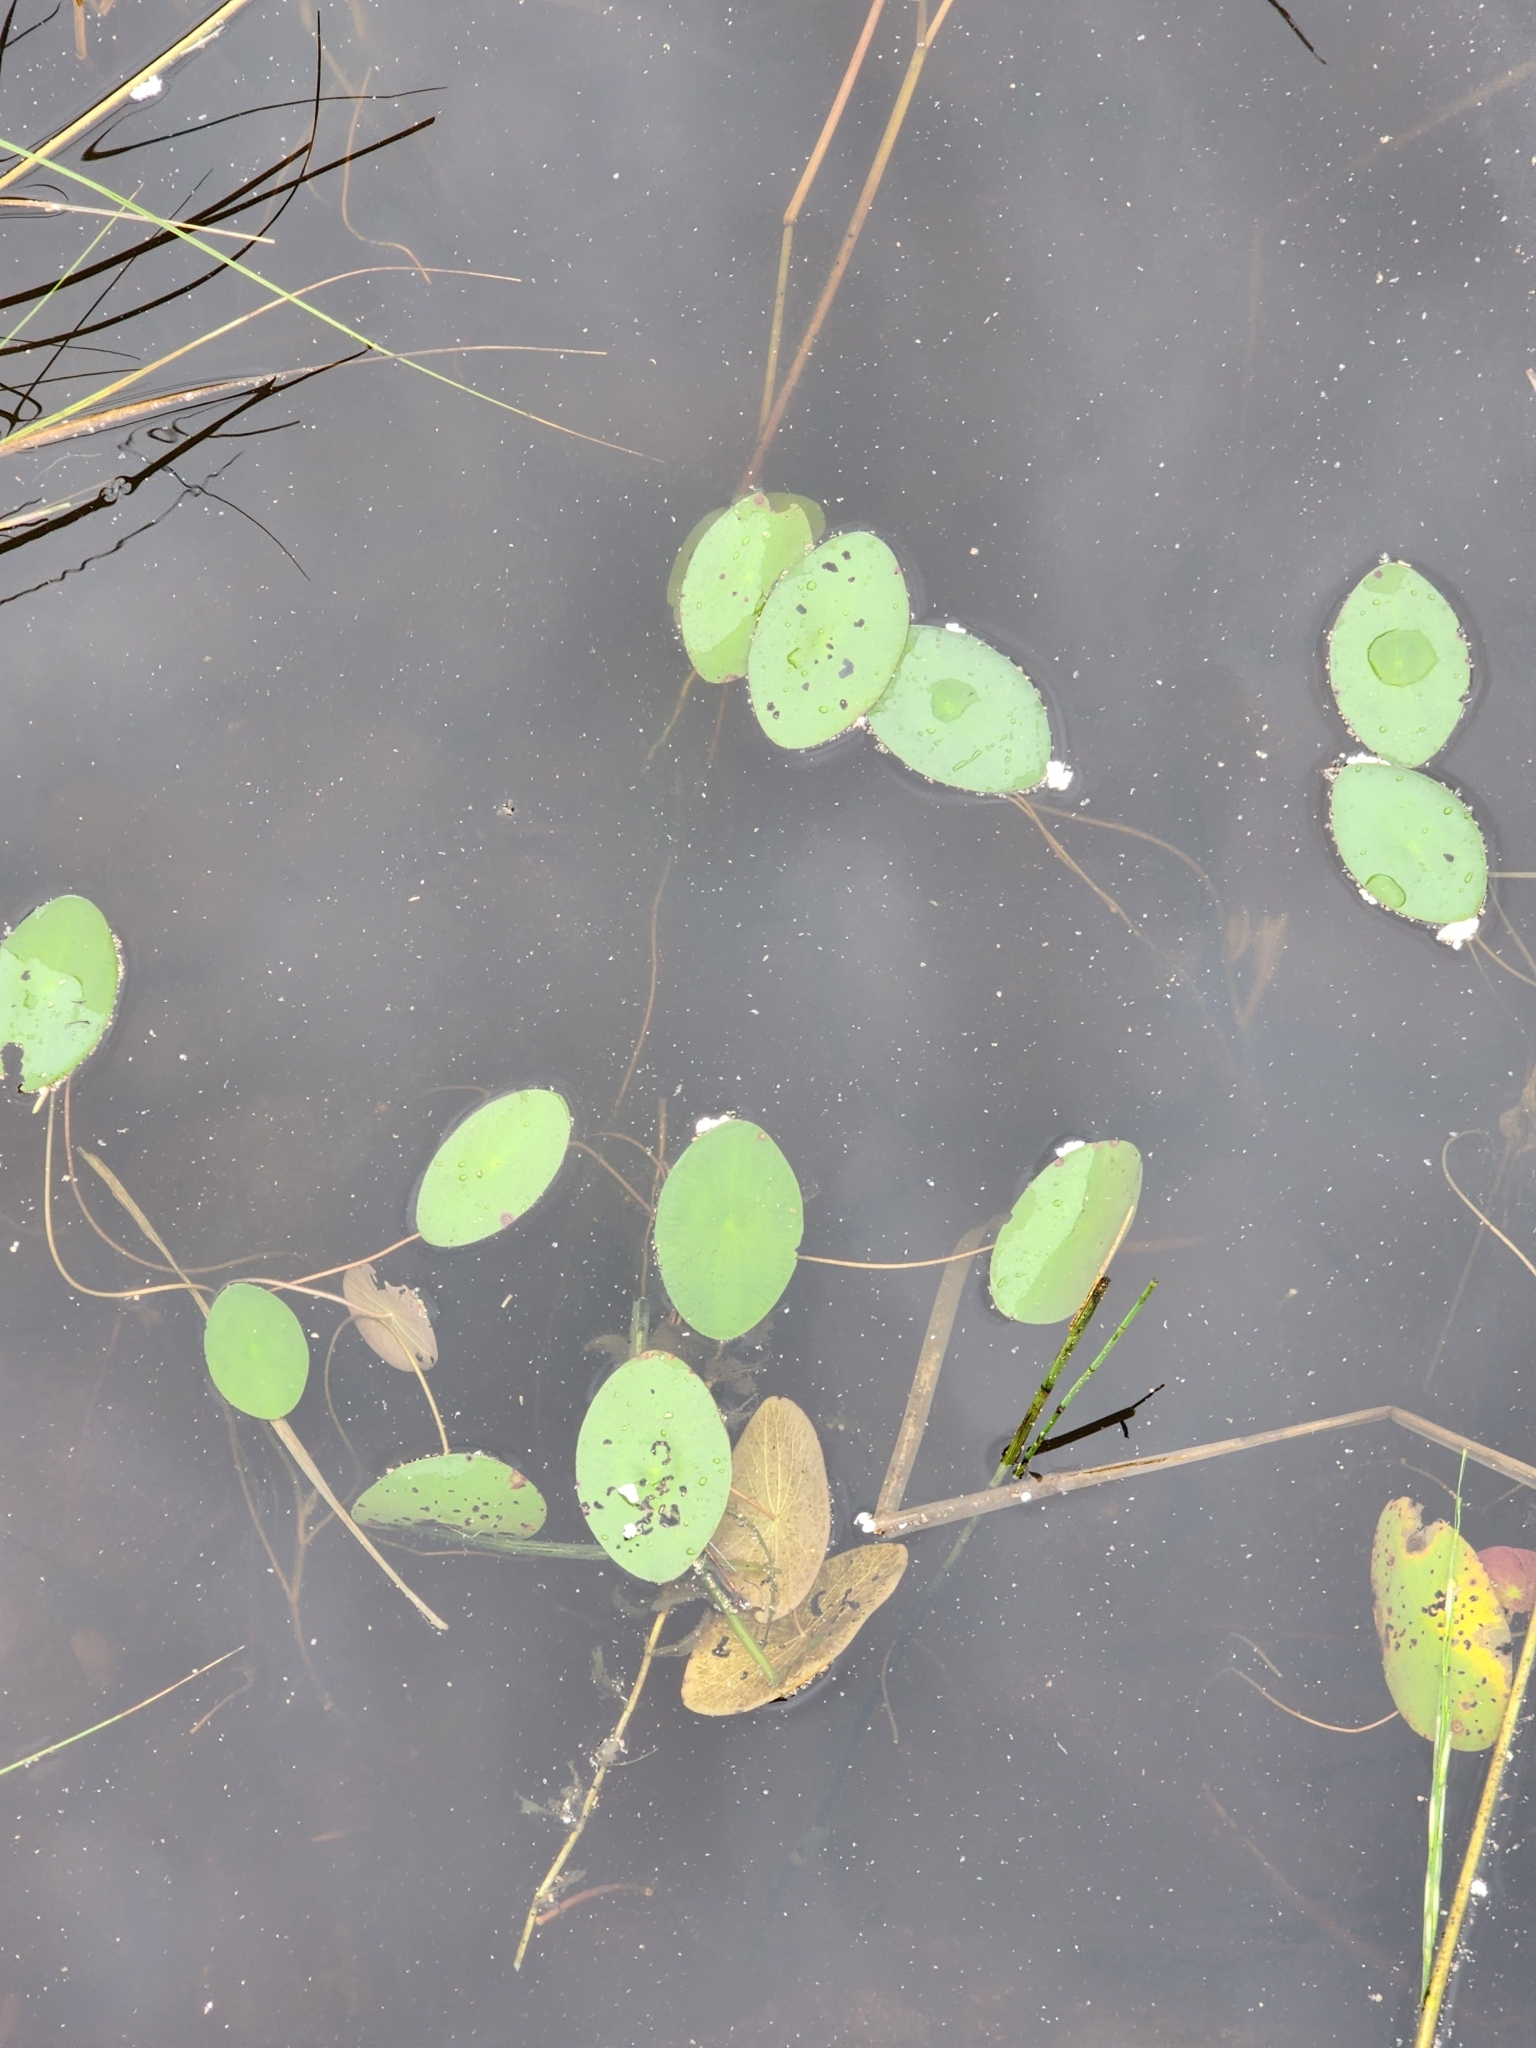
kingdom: Plantae
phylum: Tracheophyta
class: Magnoliopsida
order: Nymphaeales
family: Cabombaceae
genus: Brasenia
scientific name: Brasenia schreberi
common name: Water-shield
